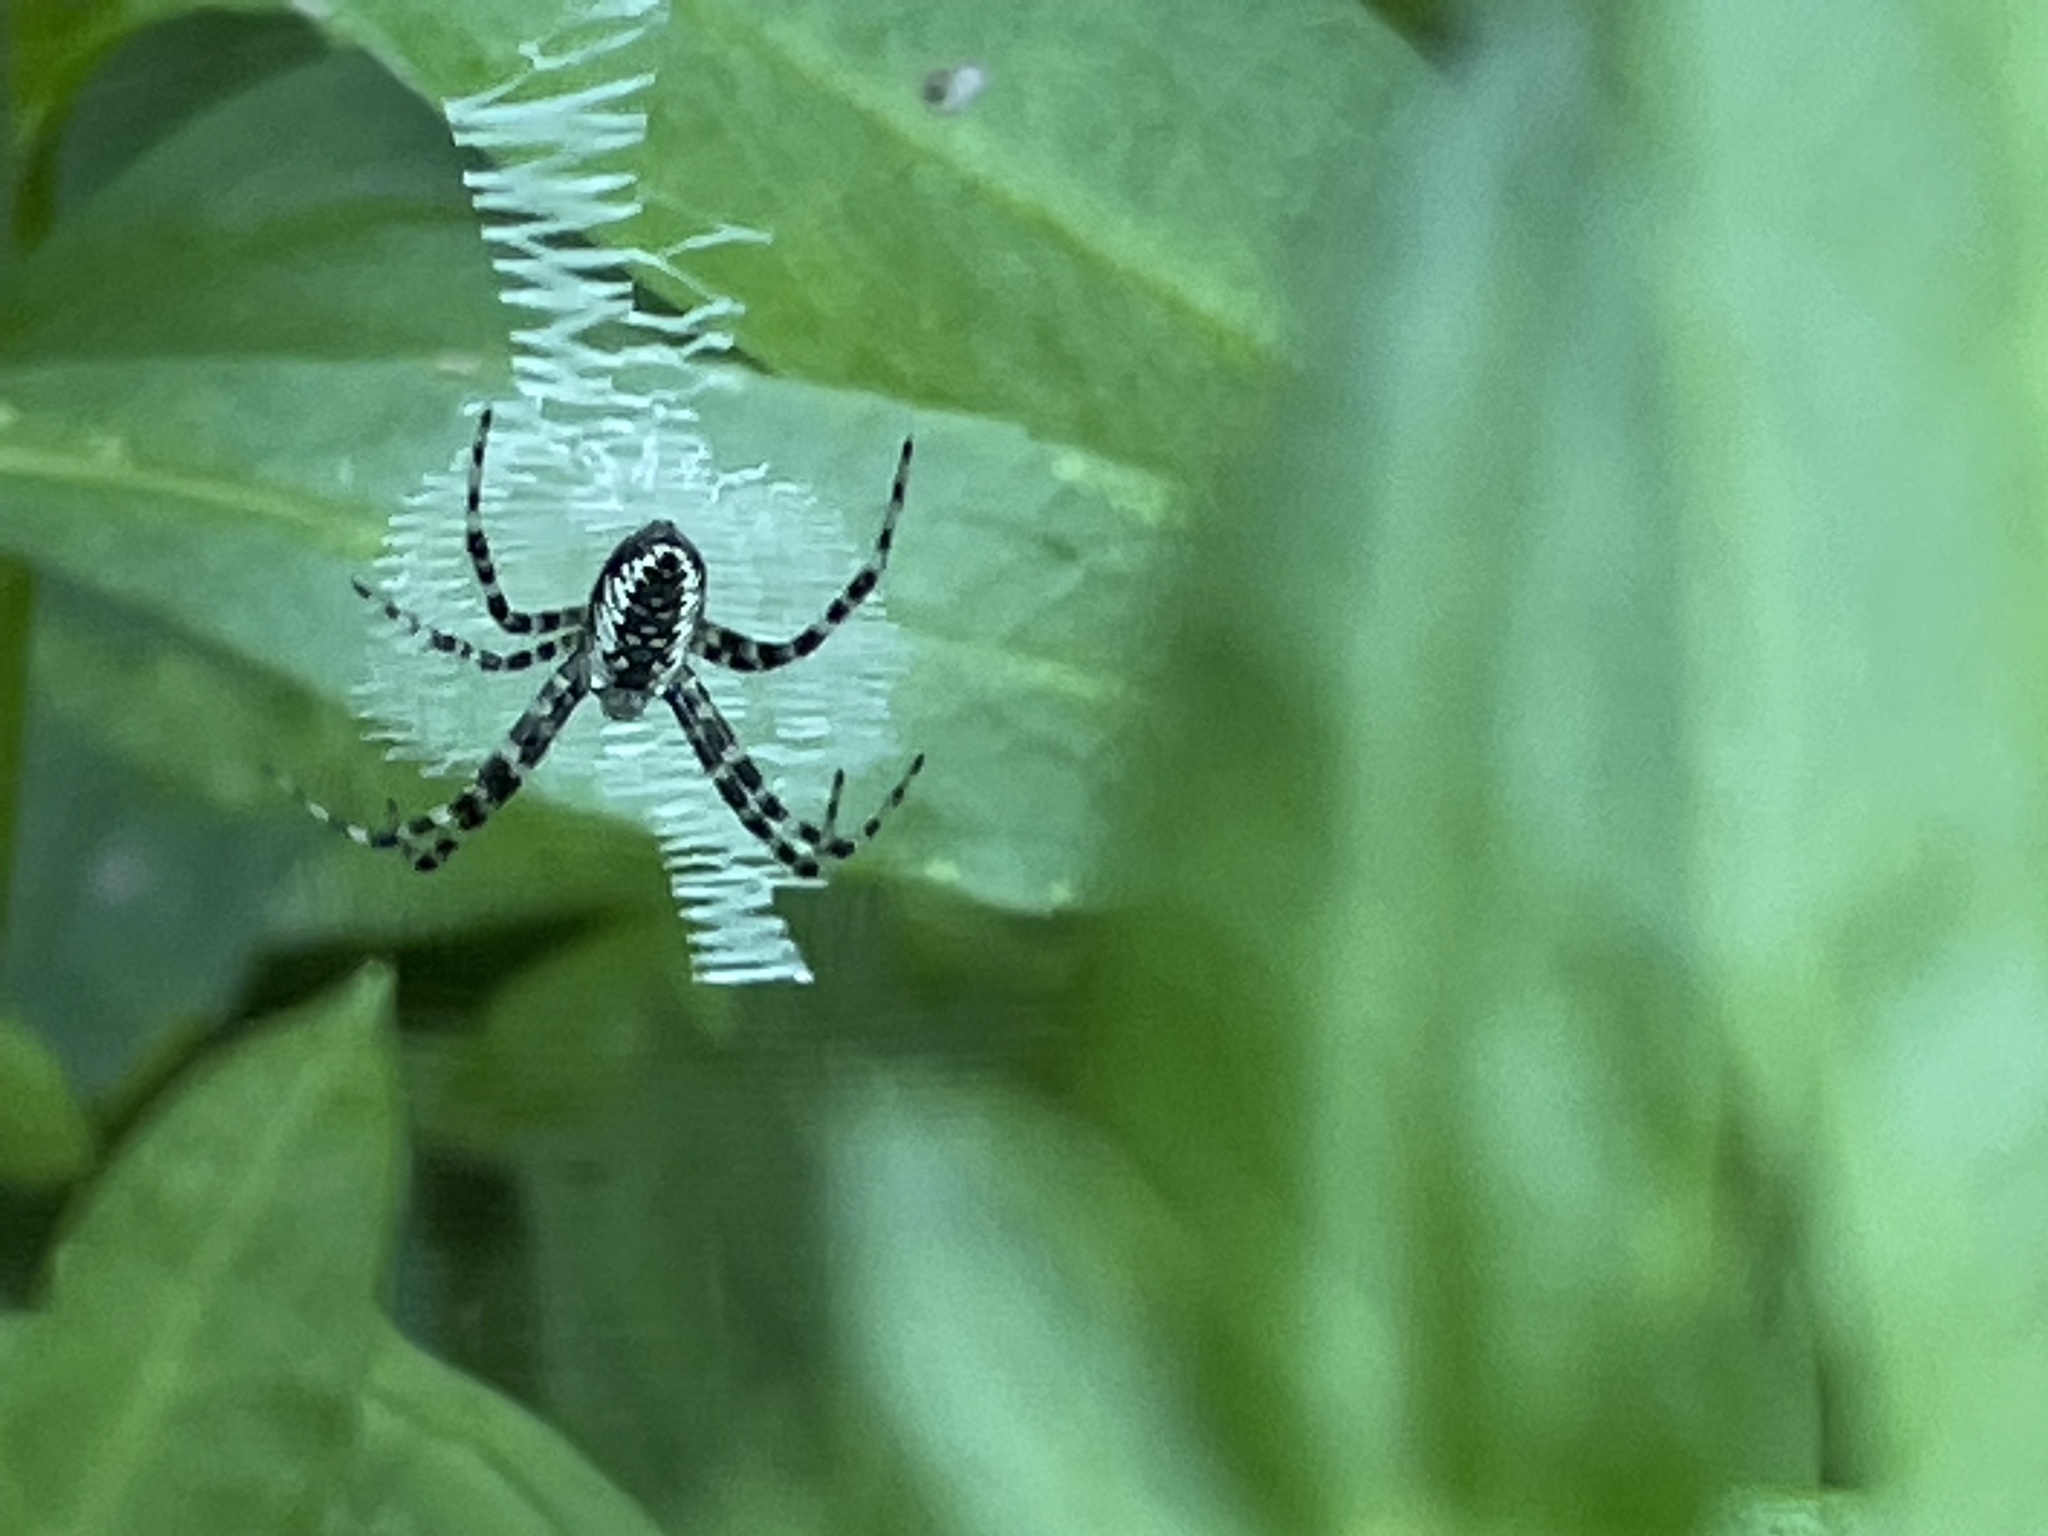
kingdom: Animalia
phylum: Arthropoda
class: Arachnida
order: Araneae
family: Araneidae
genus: Argiope
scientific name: Argiope aurantia
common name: Orb weavers
